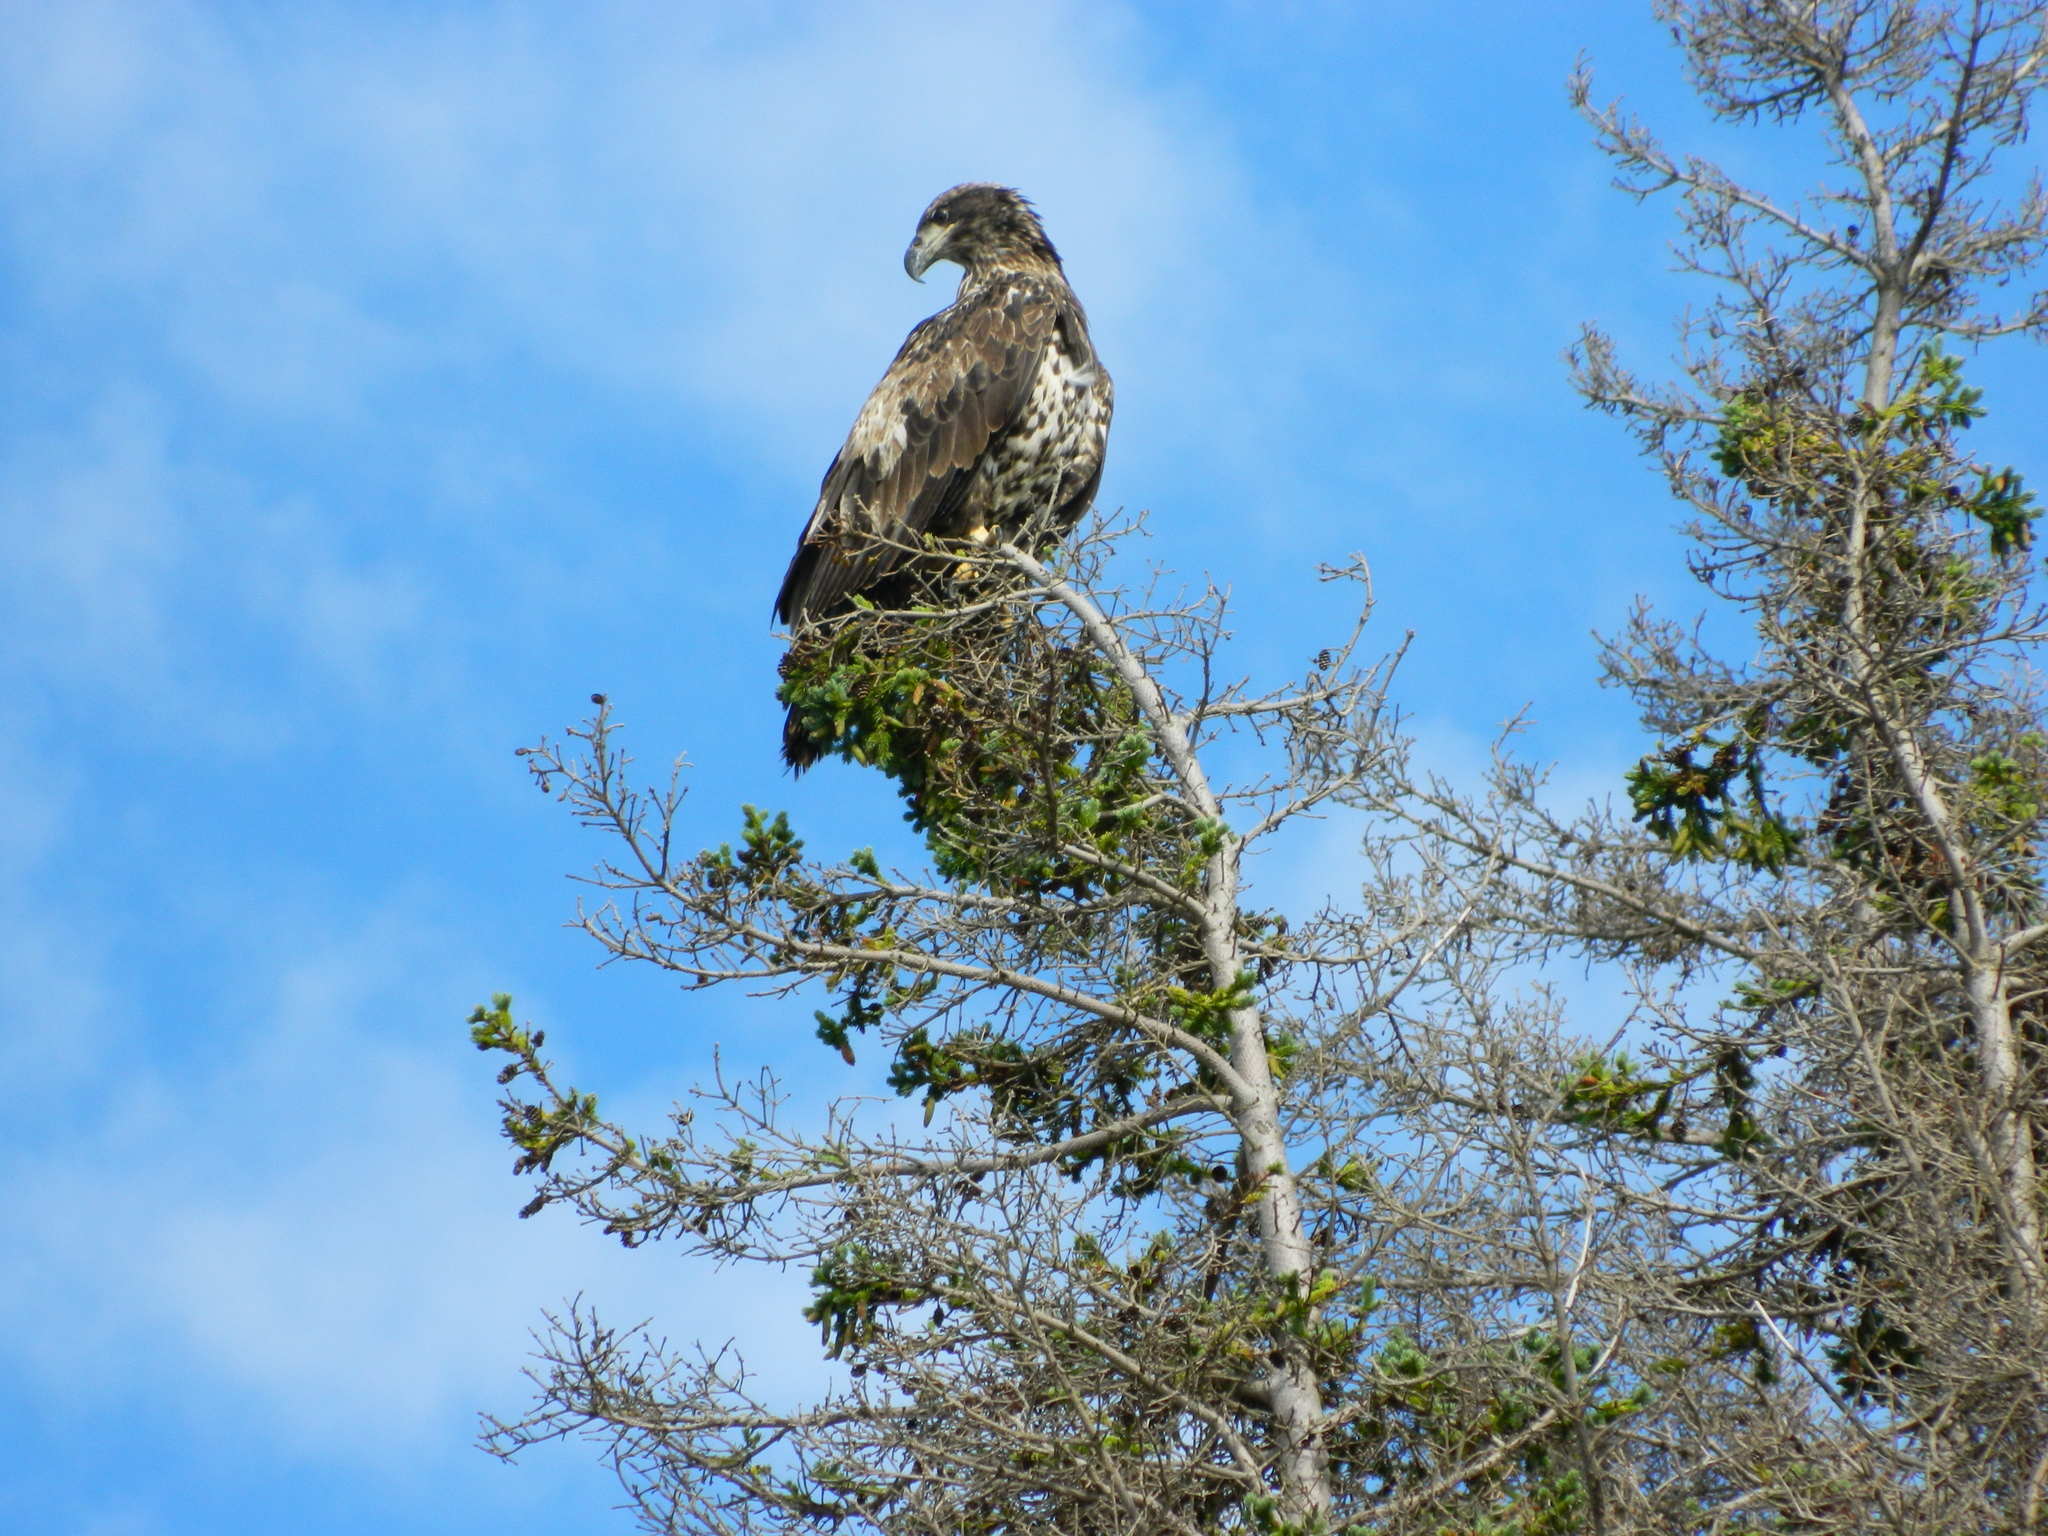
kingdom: Animalia
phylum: Chordata
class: Aves
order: Accipitriformes
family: Accipitridae
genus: Haliaeetus
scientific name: Haliaeetus leucocephalus
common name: Bald eagle
